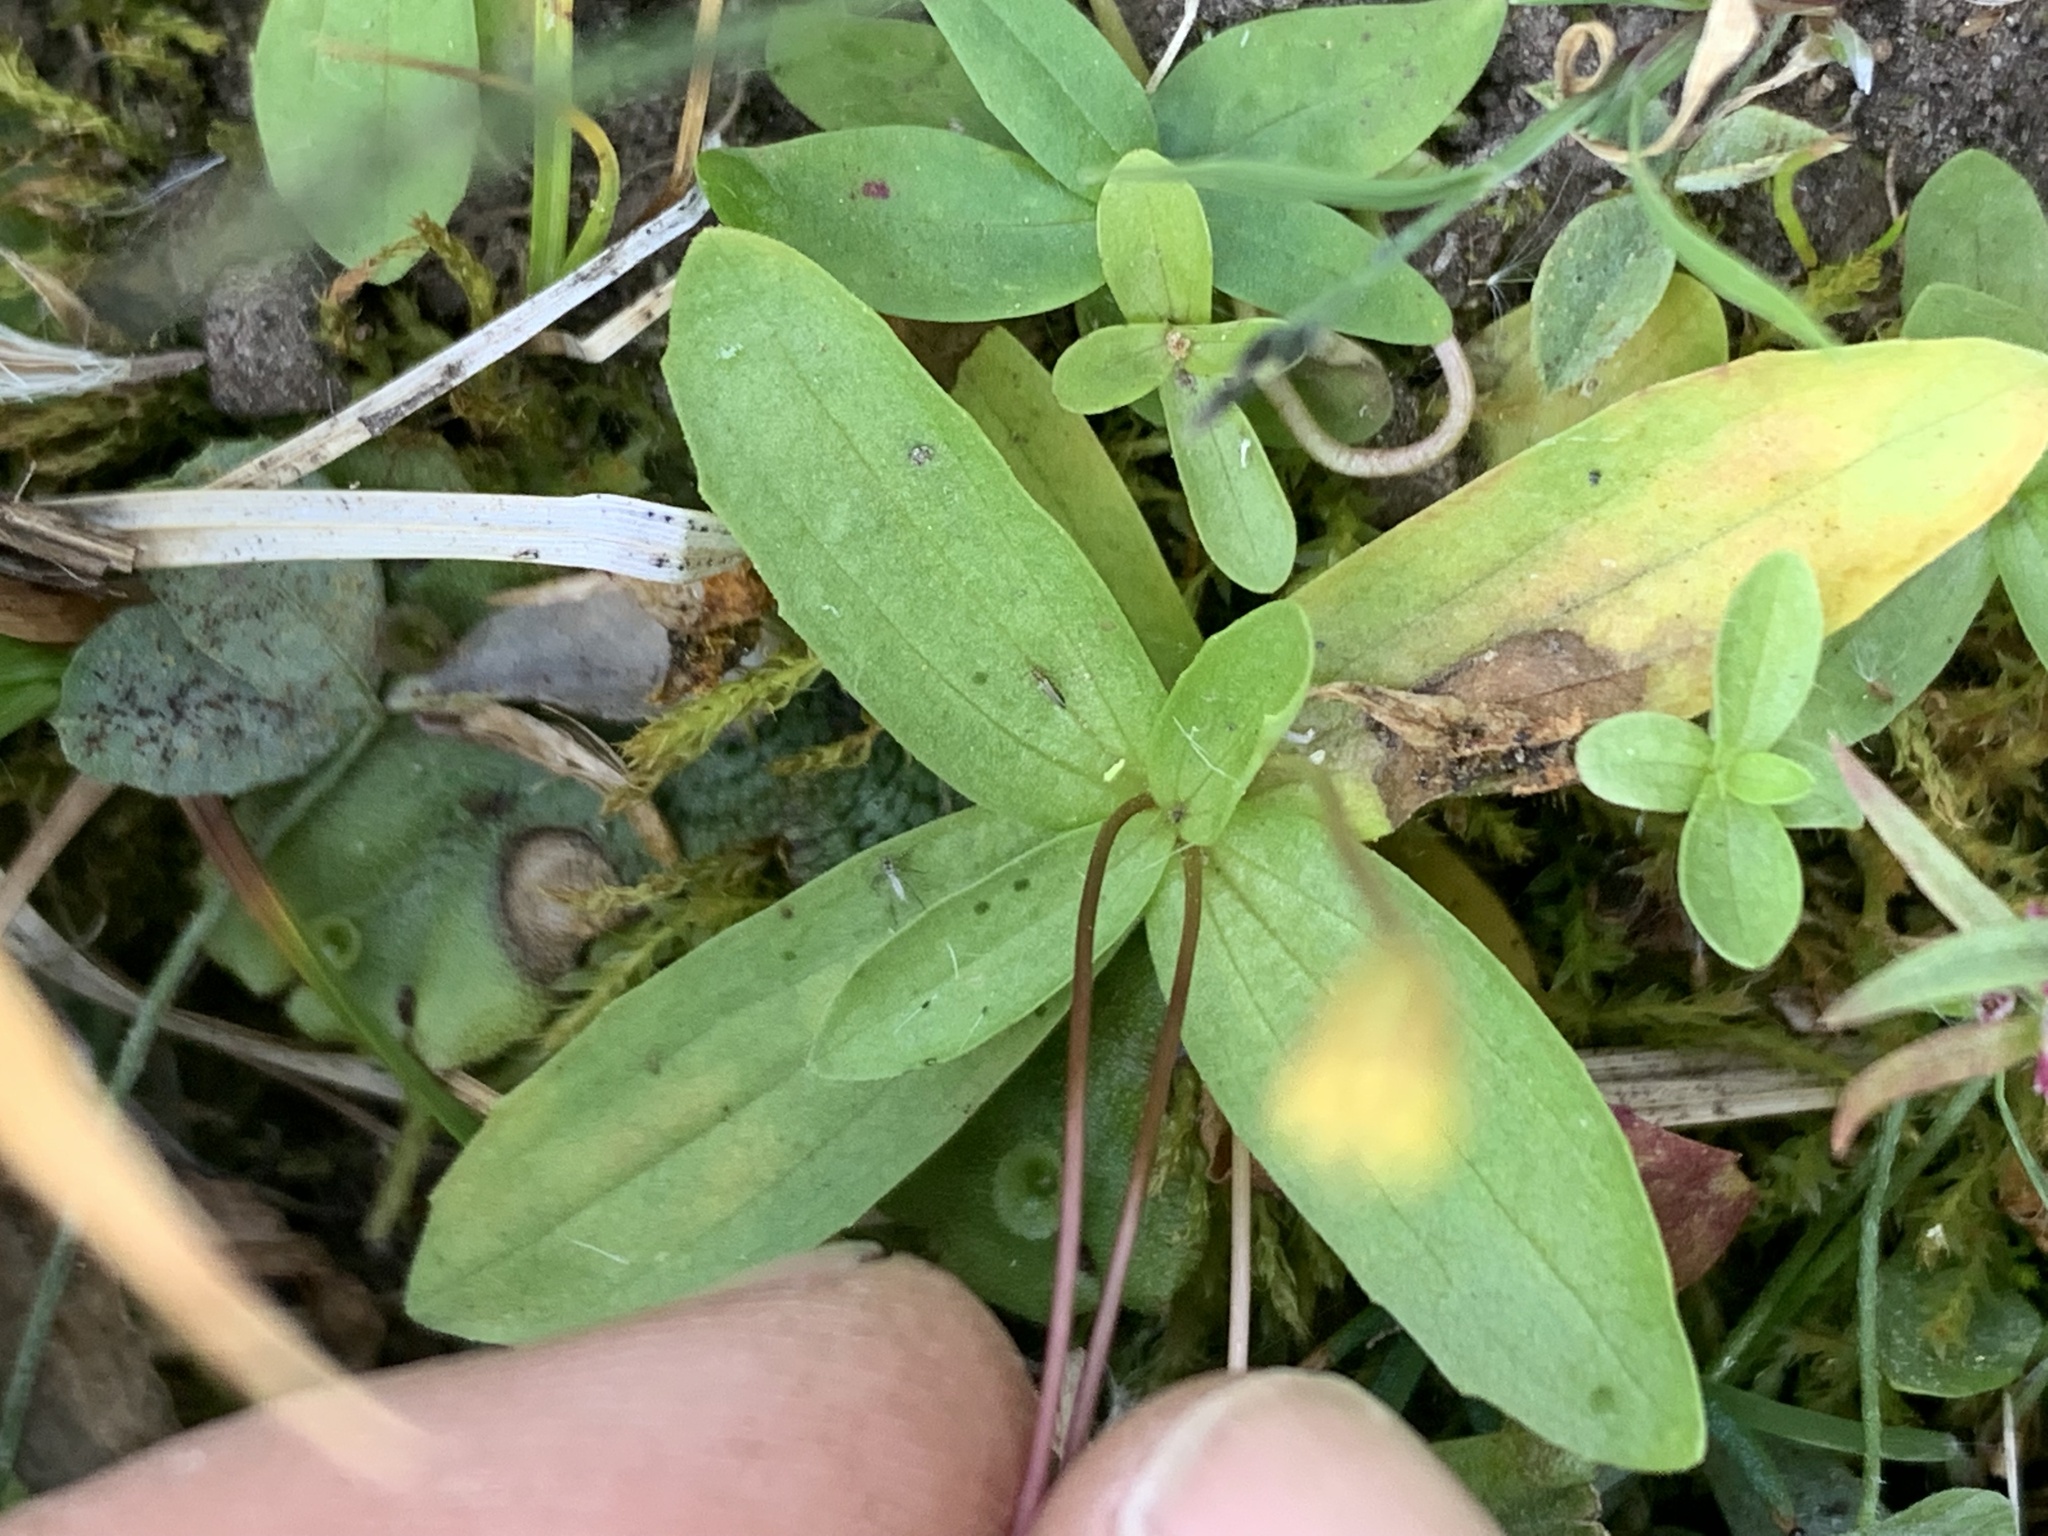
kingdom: Plantae
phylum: Tracheophyta
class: Magnoliopsida
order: Lamiales
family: Phrymaceae
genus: Erythranthe
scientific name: Erythranthe primuloides
